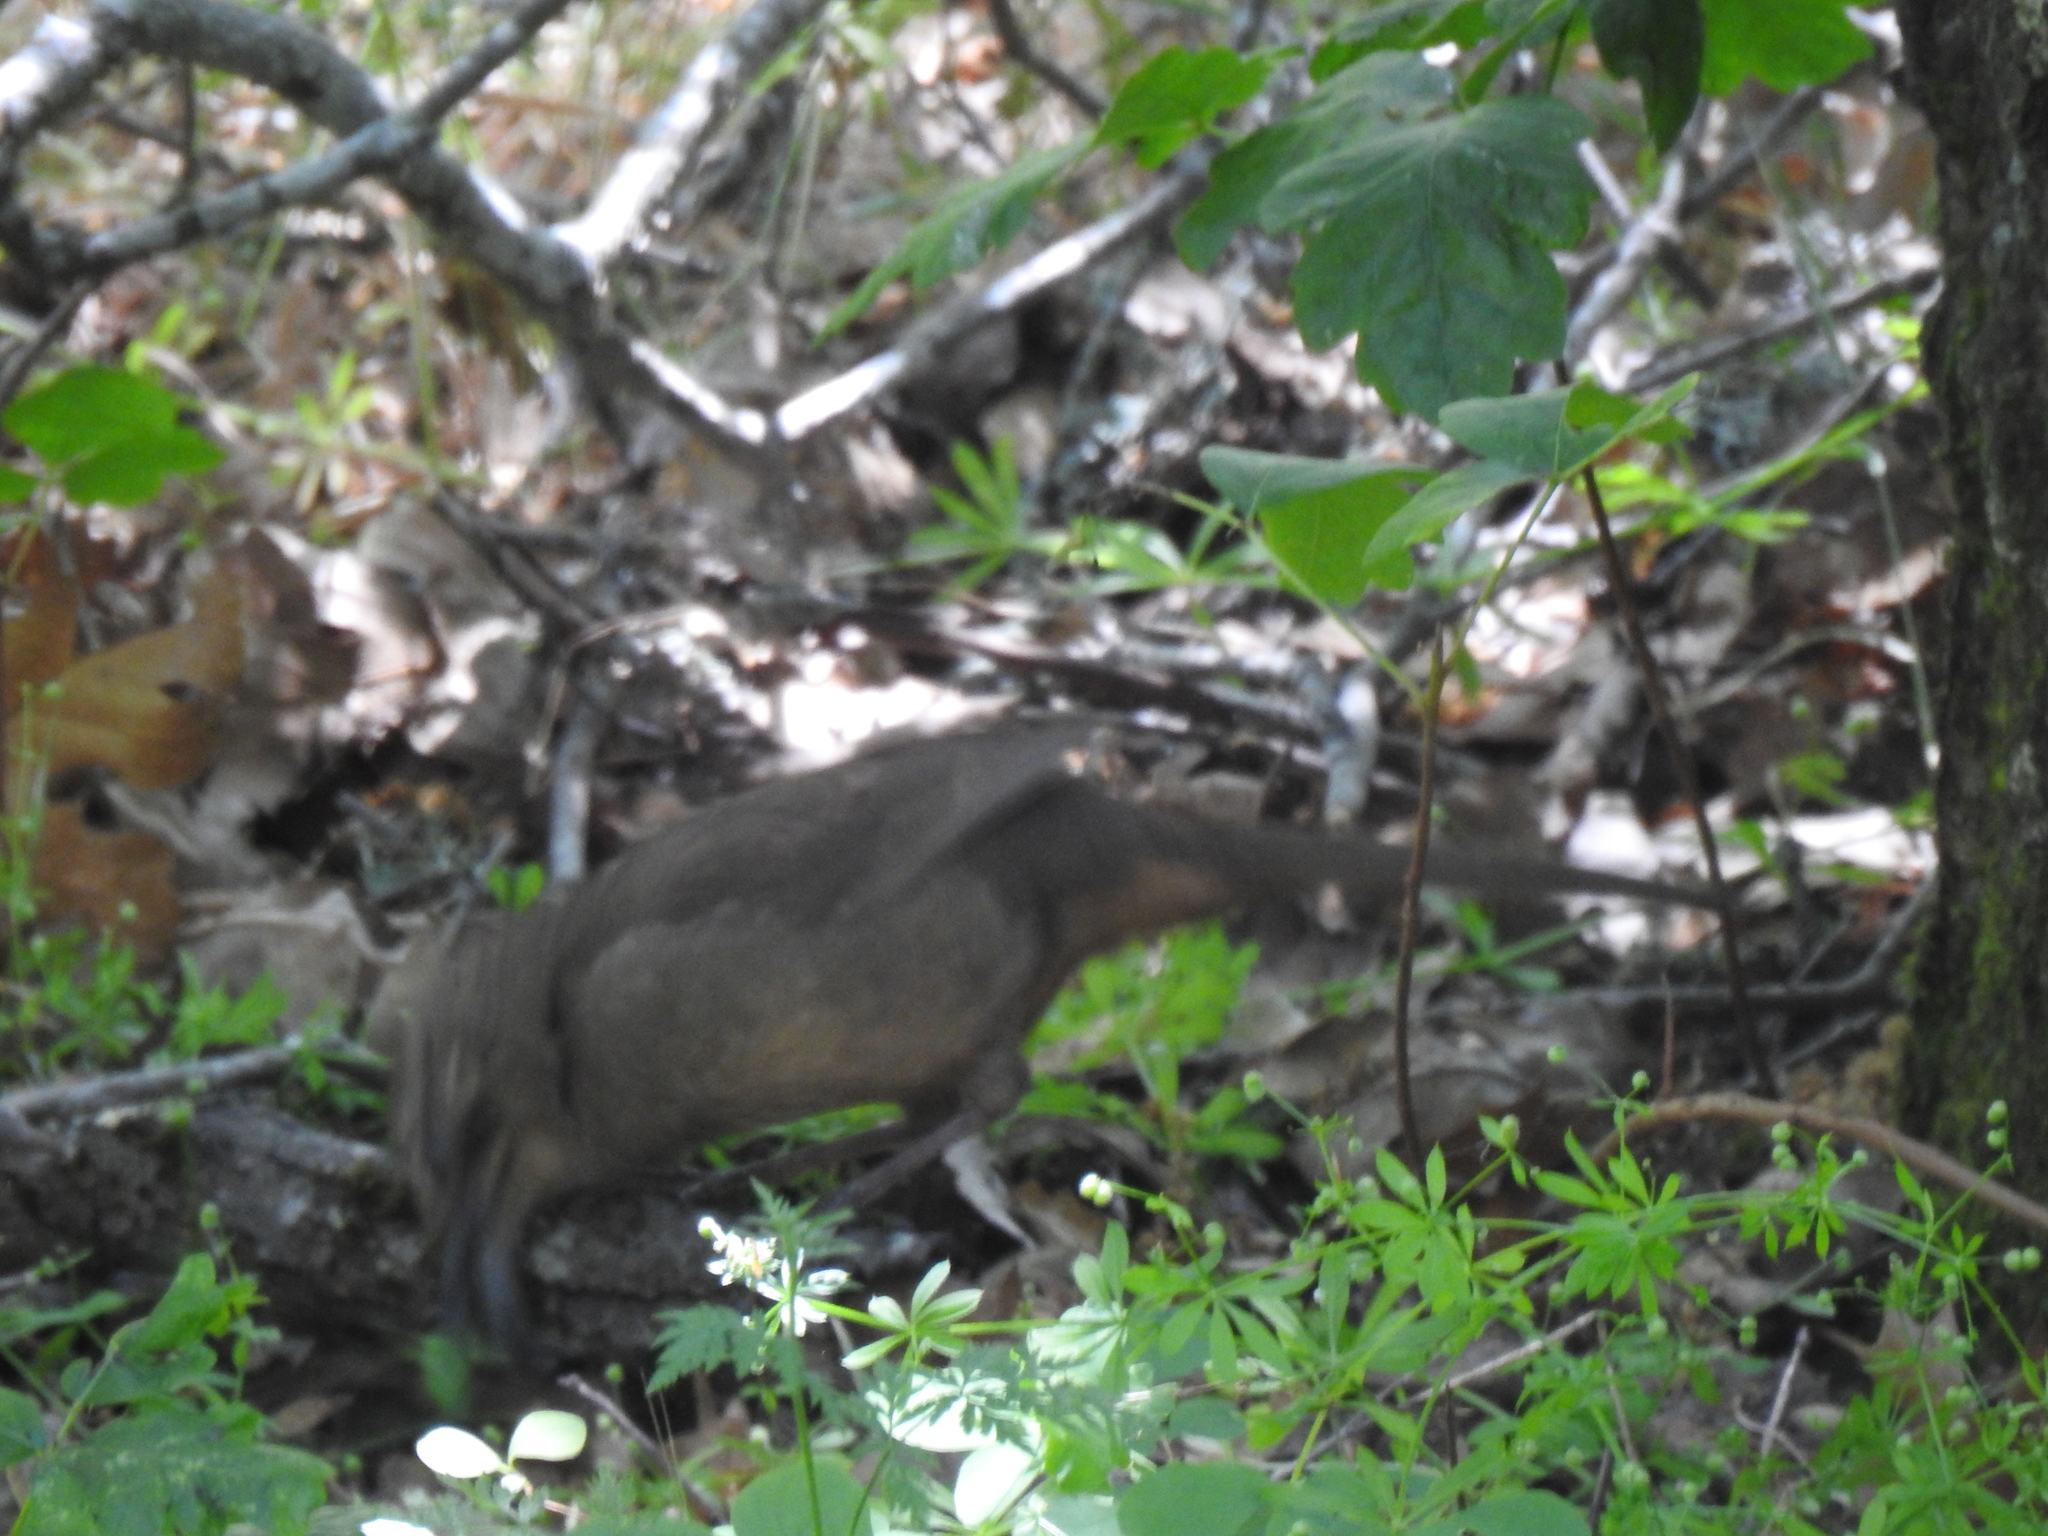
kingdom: Animalia
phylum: Chordata
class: Aves
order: Passeriformes
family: Mimidae
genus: Toxostoma
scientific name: Toxostoma redivivum
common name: California thrasher
